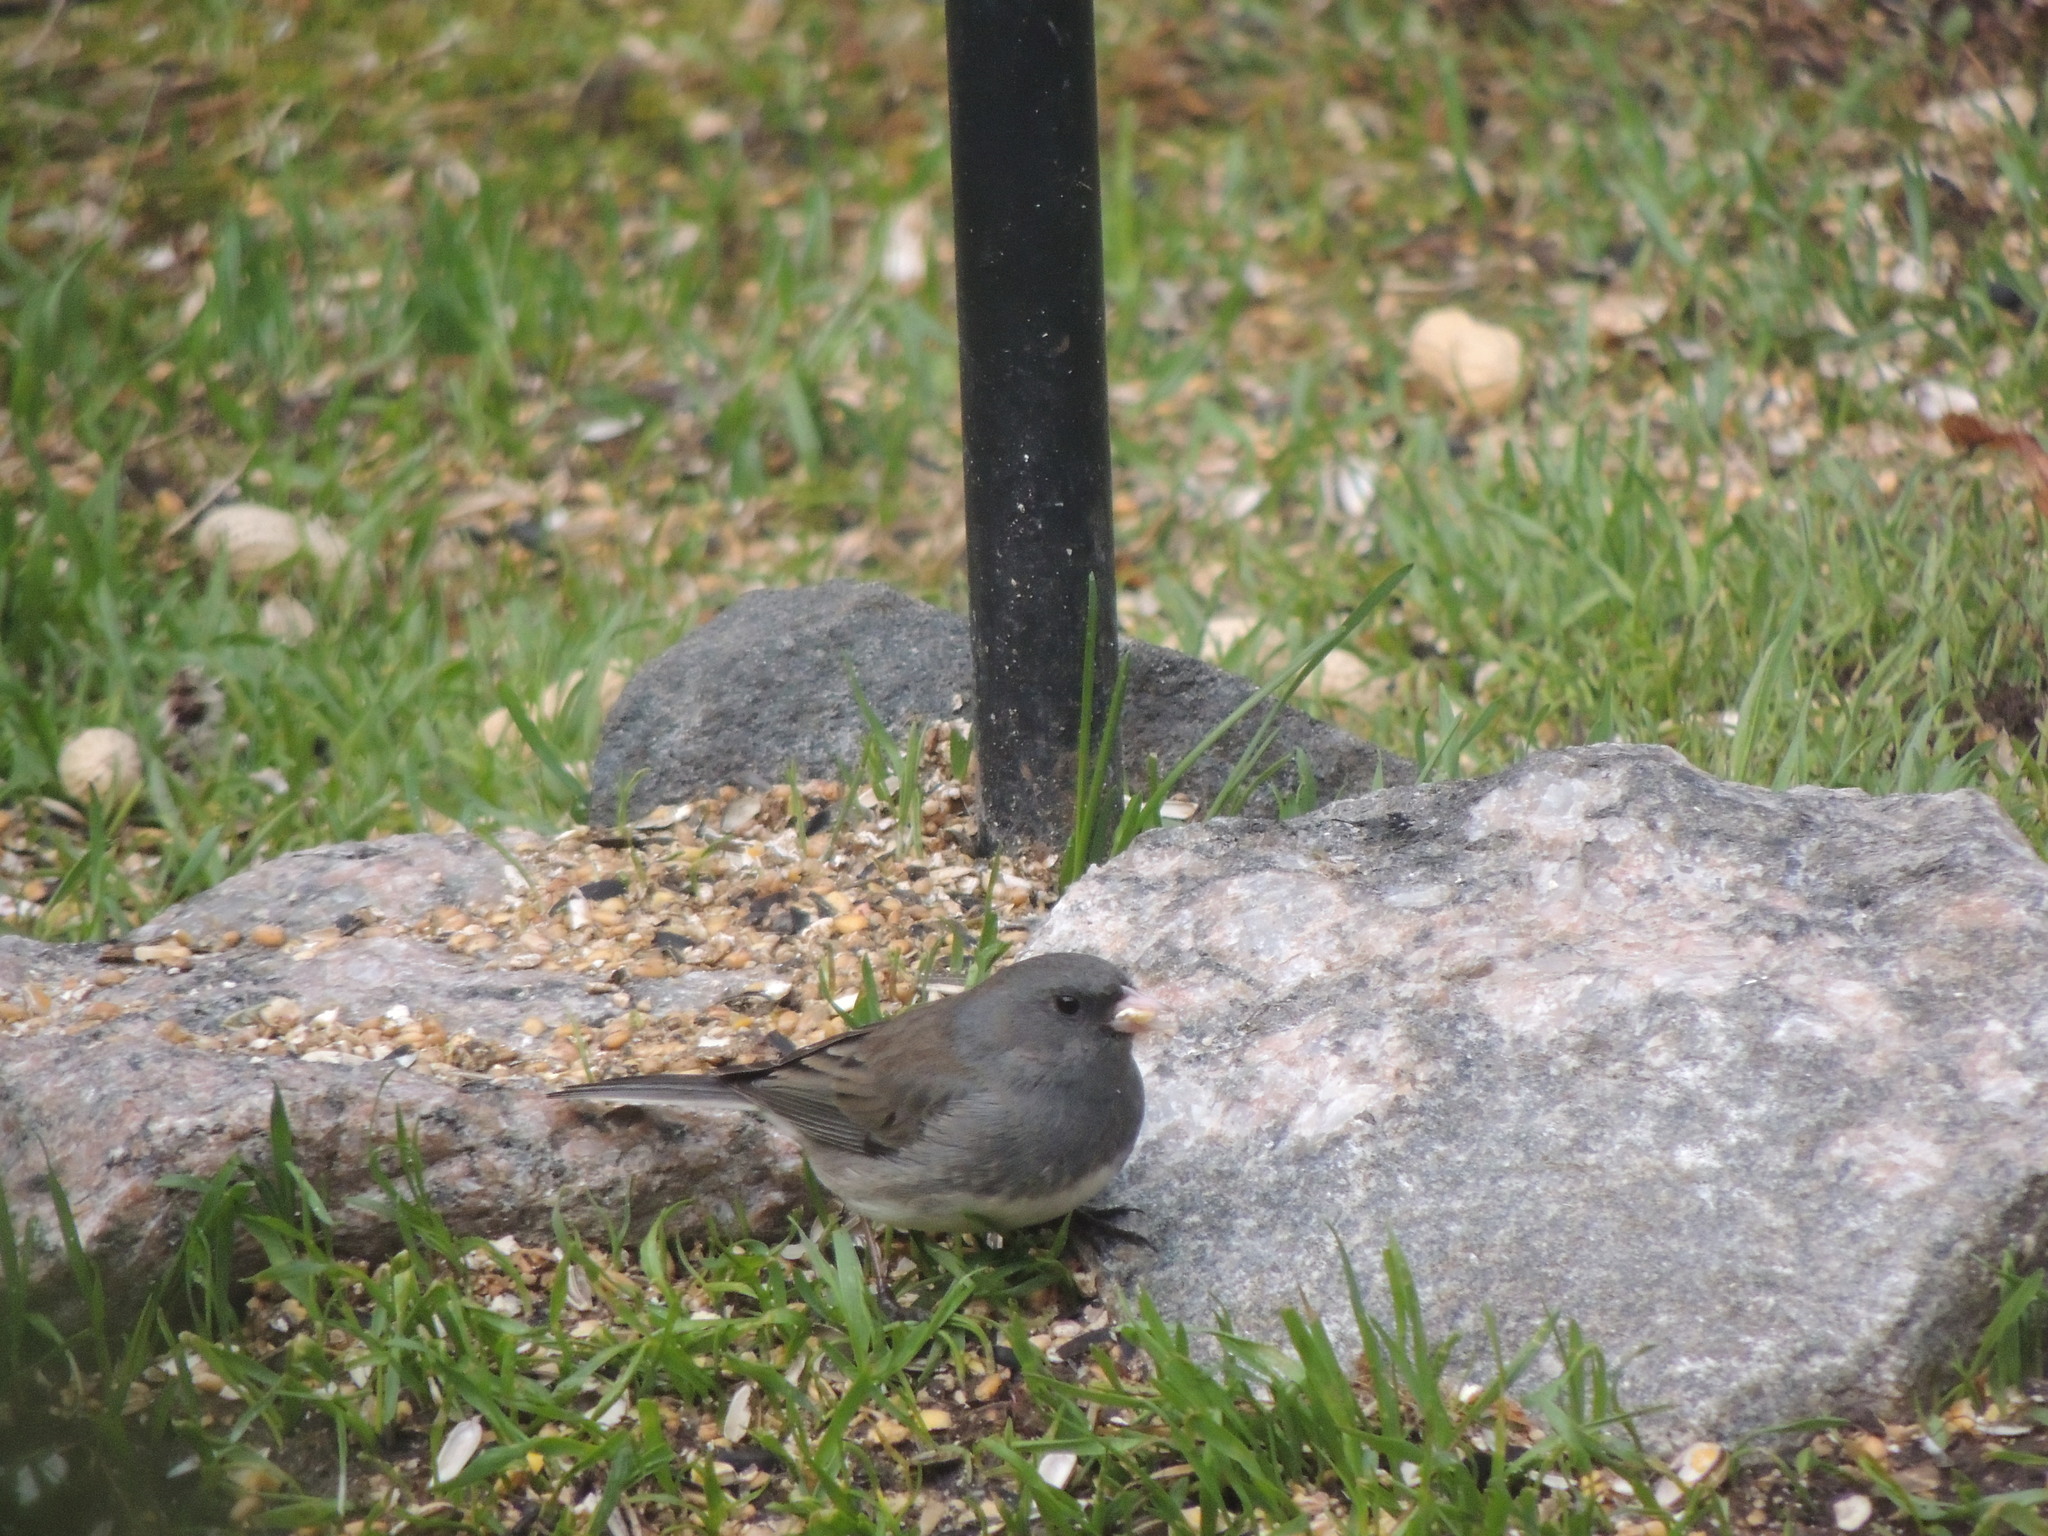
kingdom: Animalia
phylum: Chordata
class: Aves
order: Passeriformes
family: Passerellidae
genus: Junco
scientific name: Junco hyemalis
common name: Dark-eyed junco
